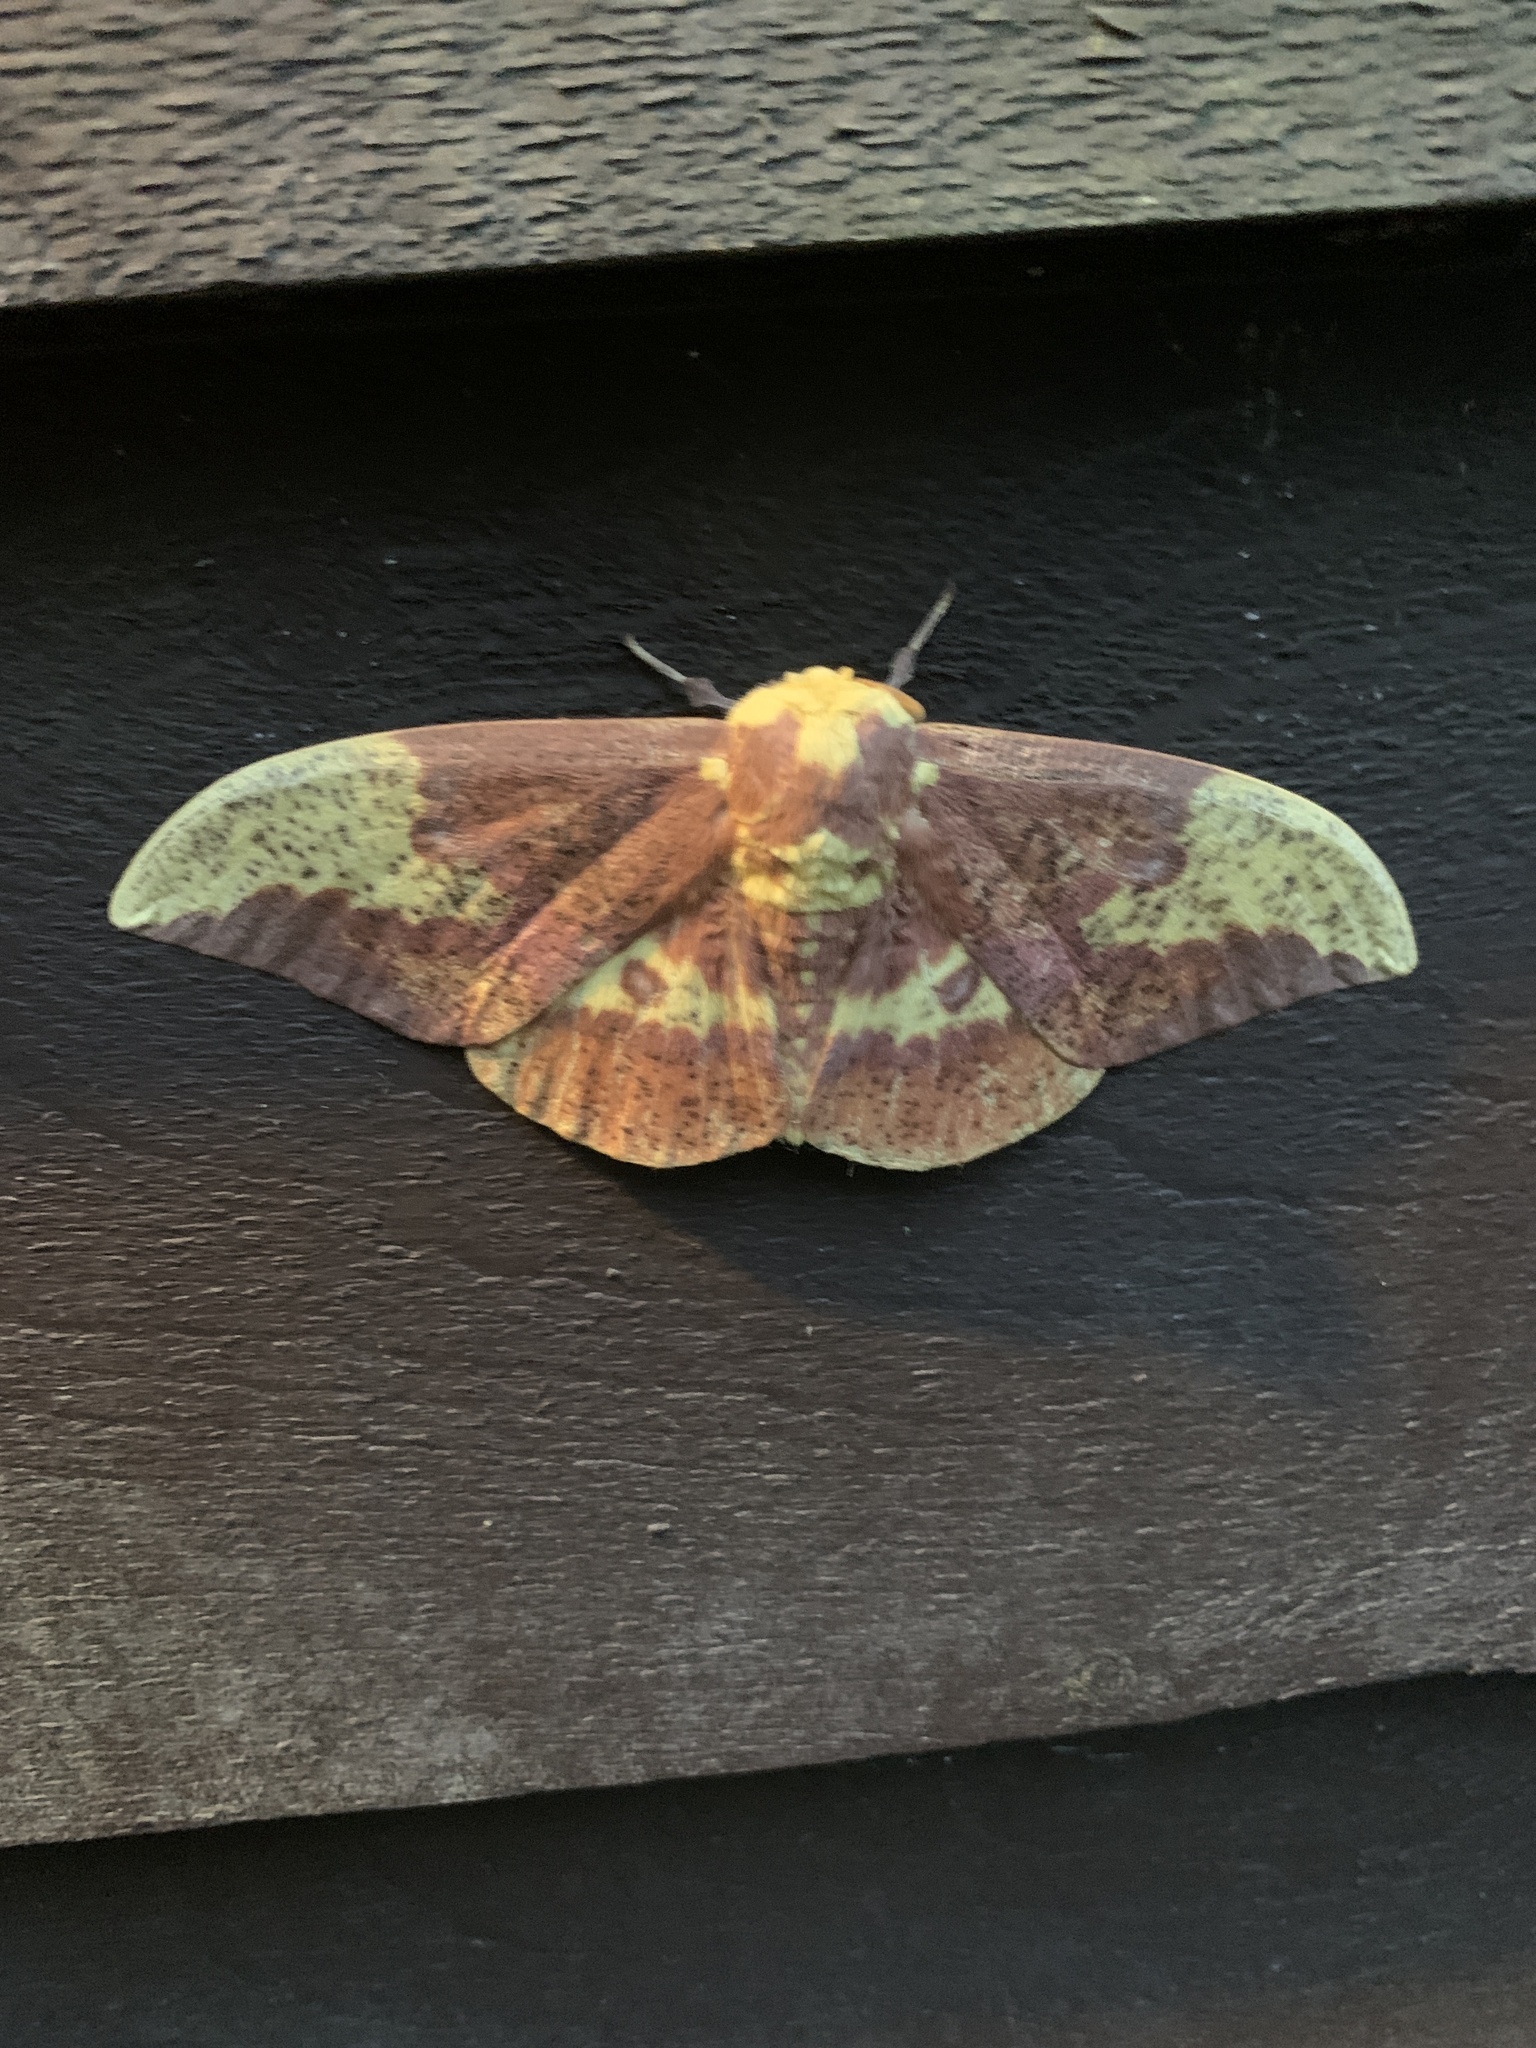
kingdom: Animalia
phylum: Arthropoda
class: Insecta
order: Lepidoptera
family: Saturniidae
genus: Eacles
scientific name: Eacles imperialis
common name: Imperial moth
